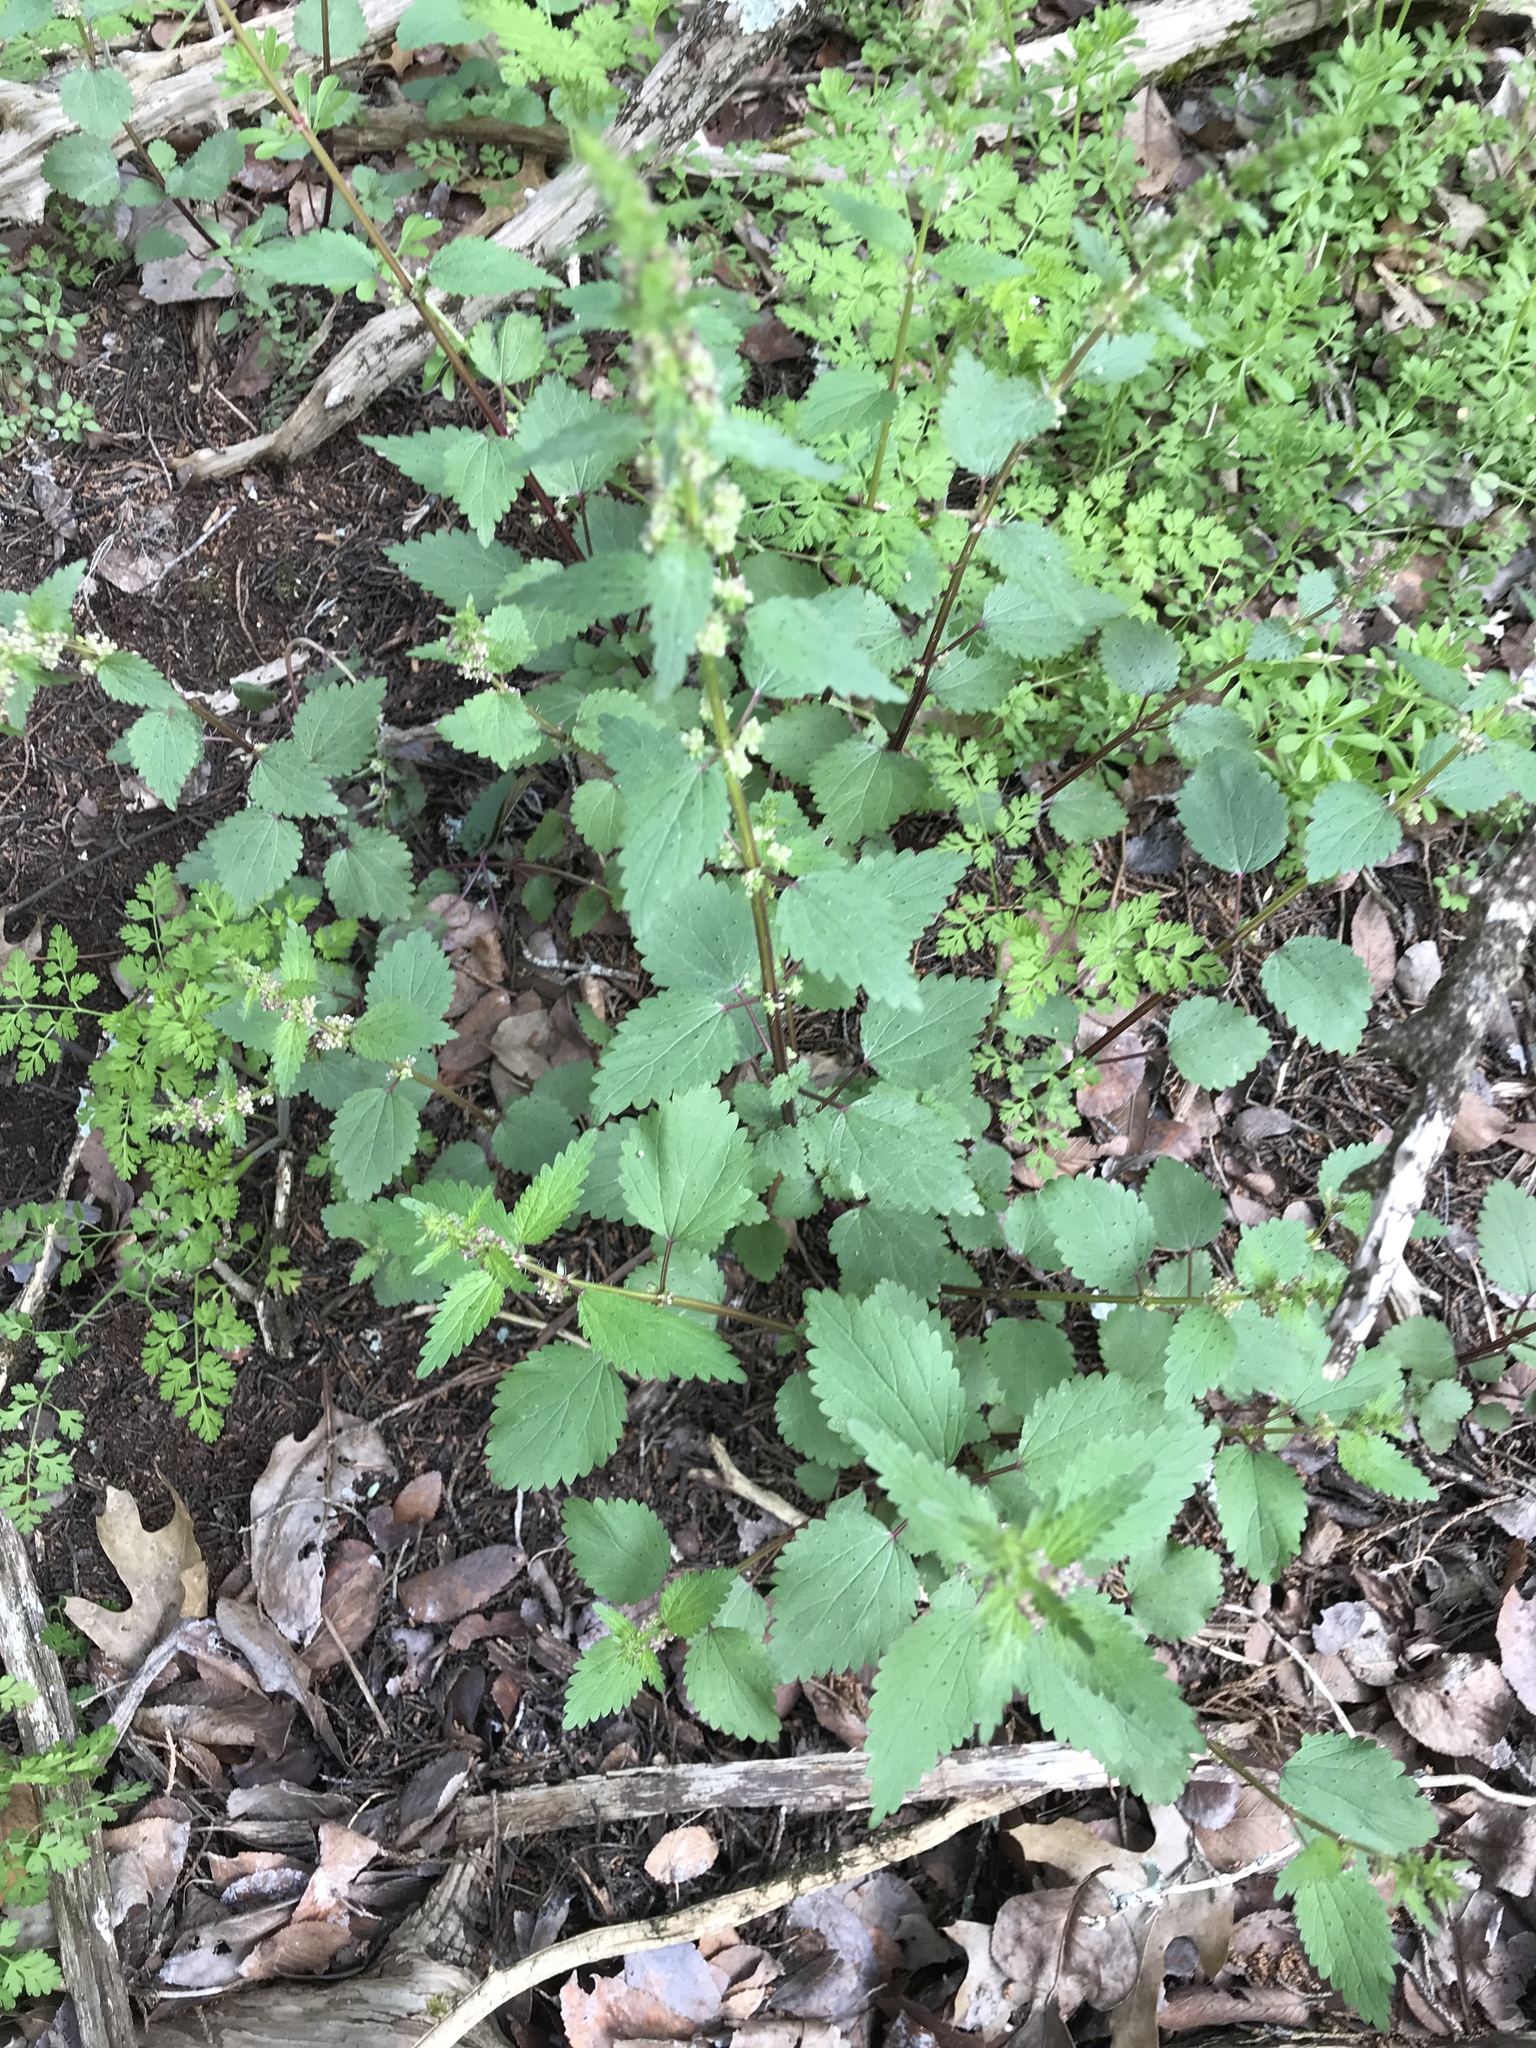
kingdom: Plantae
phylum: Tracheophyta
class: Magnoliopsida
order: Rosales
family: Urticaceae
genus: Urtica
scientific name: Urtica chamaedryoides
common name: Heart-leaf nettle
